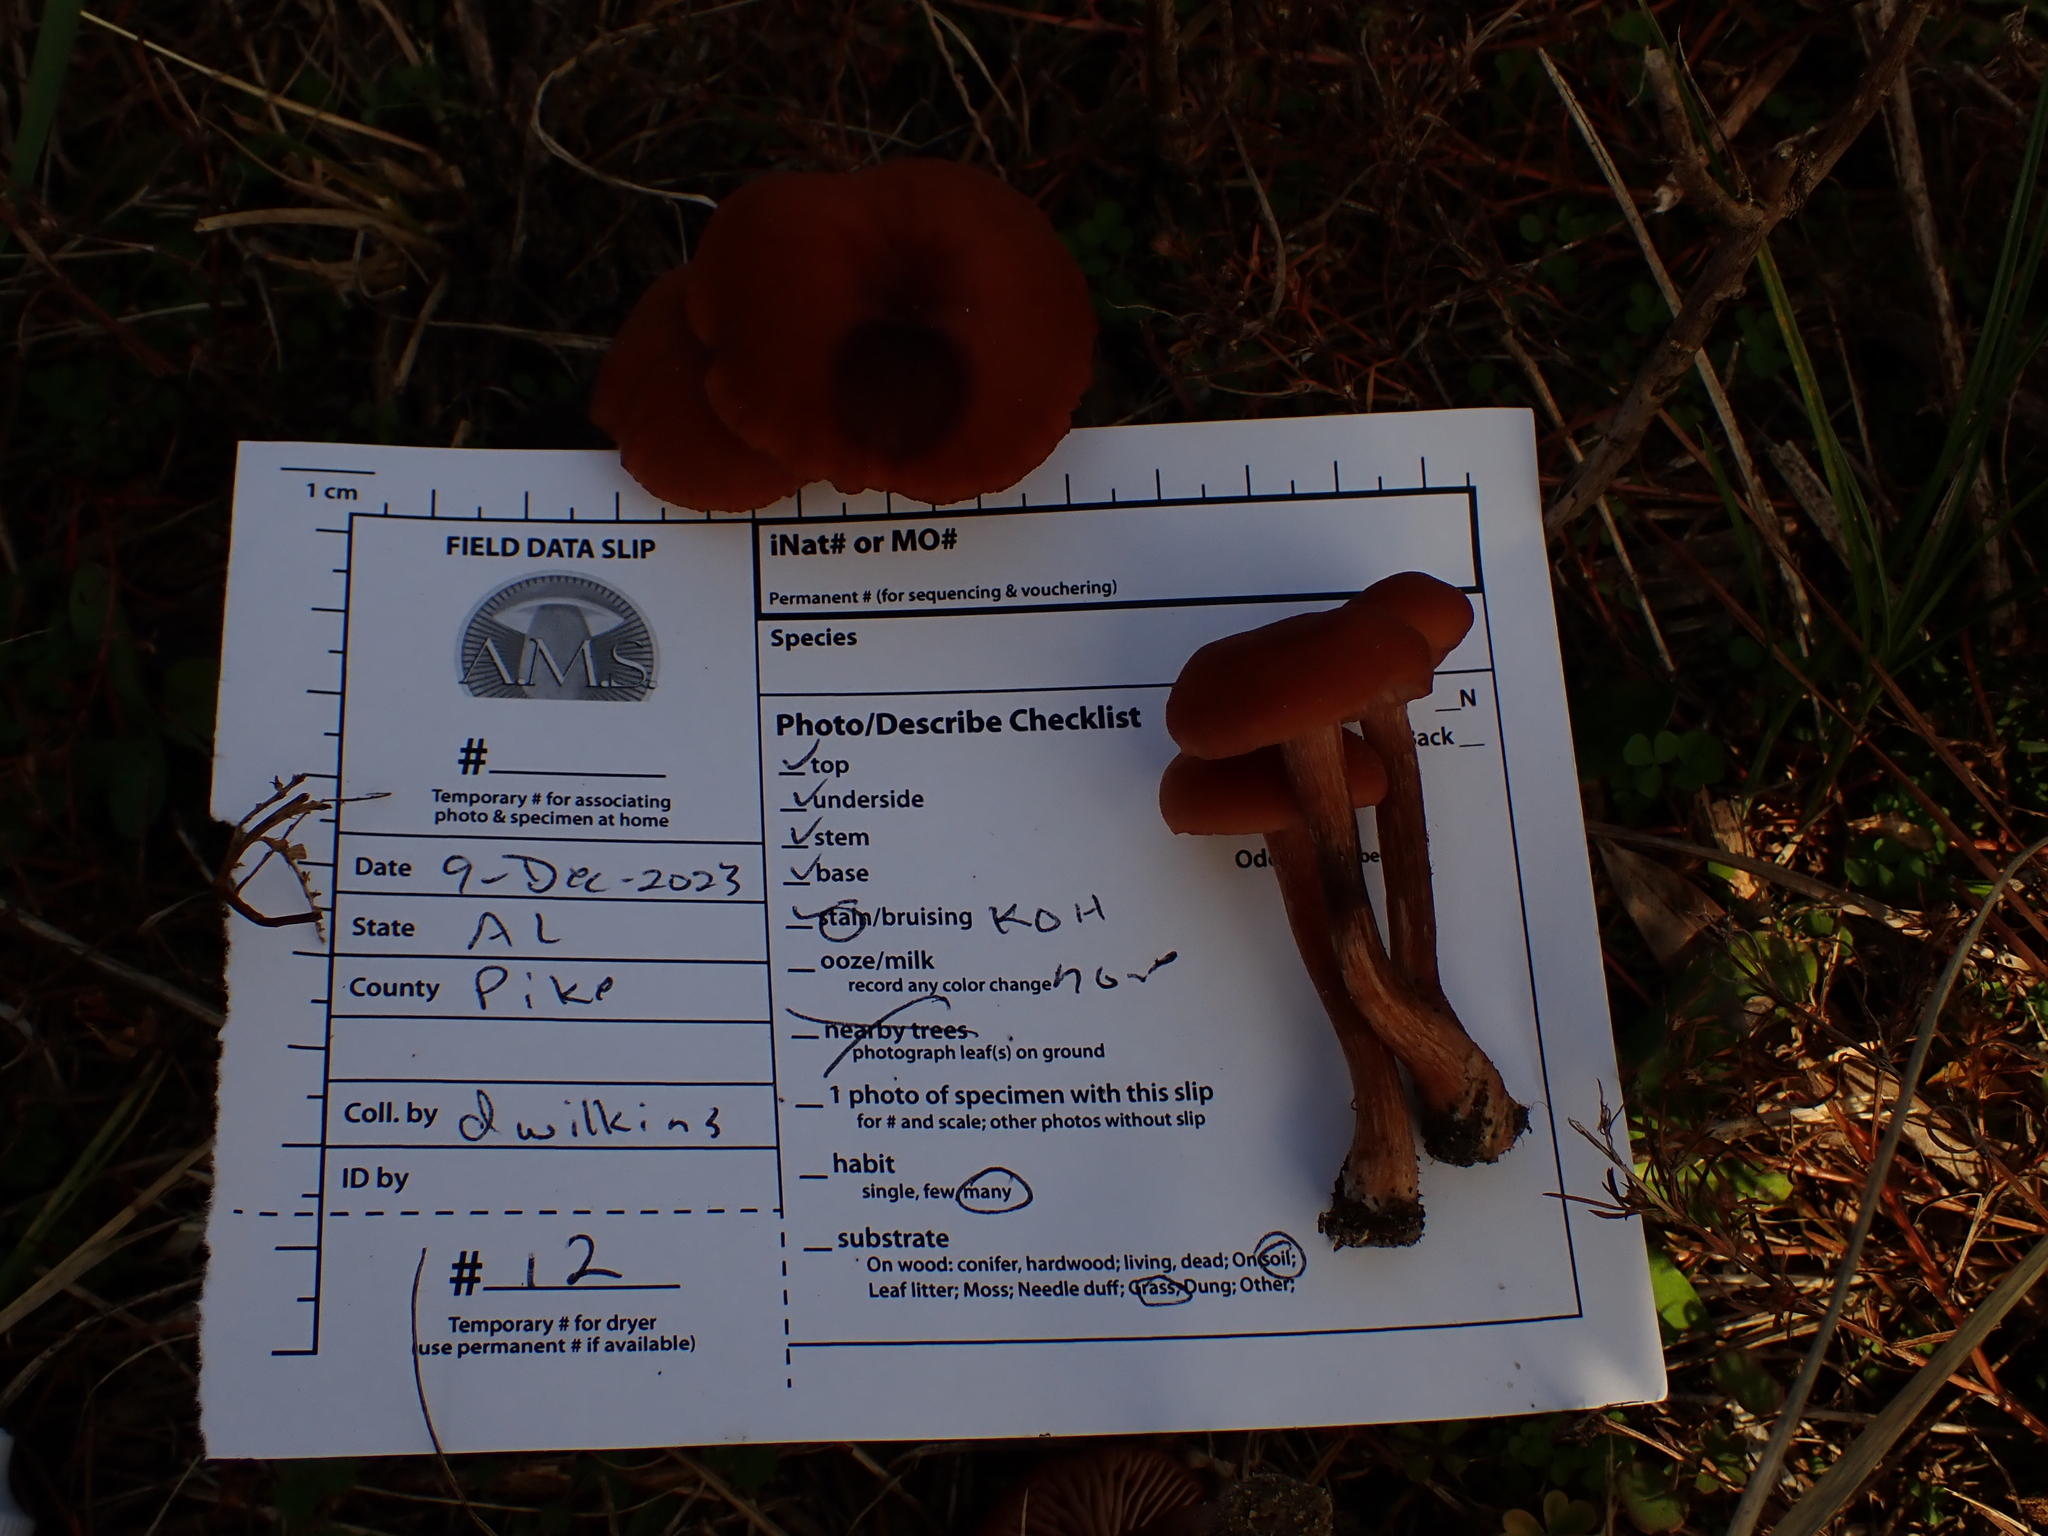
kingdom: Fungi
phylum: Basidiomycota
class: Agaricomycetes
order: Agaricales
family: Hydnangiaceae
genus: Laccaria
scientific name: Laccaria laccata
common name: Deceiver
